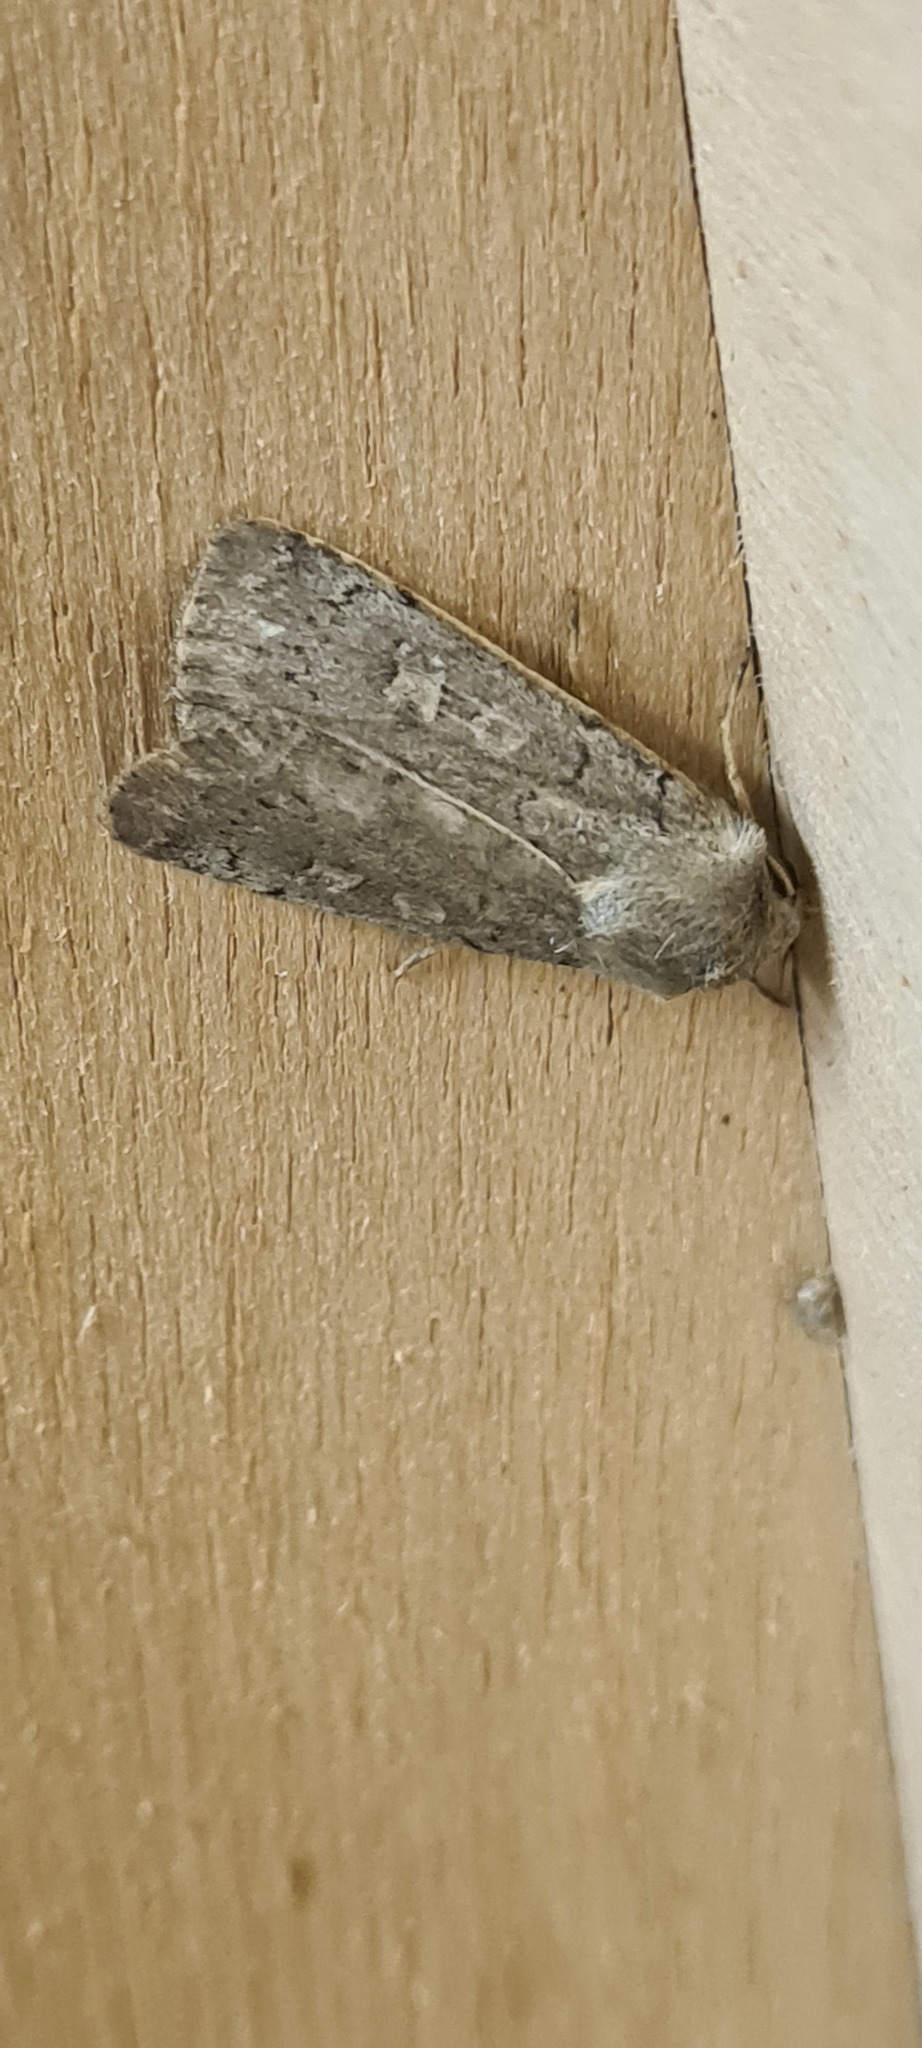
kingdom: Animalia
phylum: Arthropoda
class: Insecta
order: Lepidoptera
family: Noctuidae
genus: Xestia
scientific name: Xestia xanthographa
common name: Square-spot rustic
